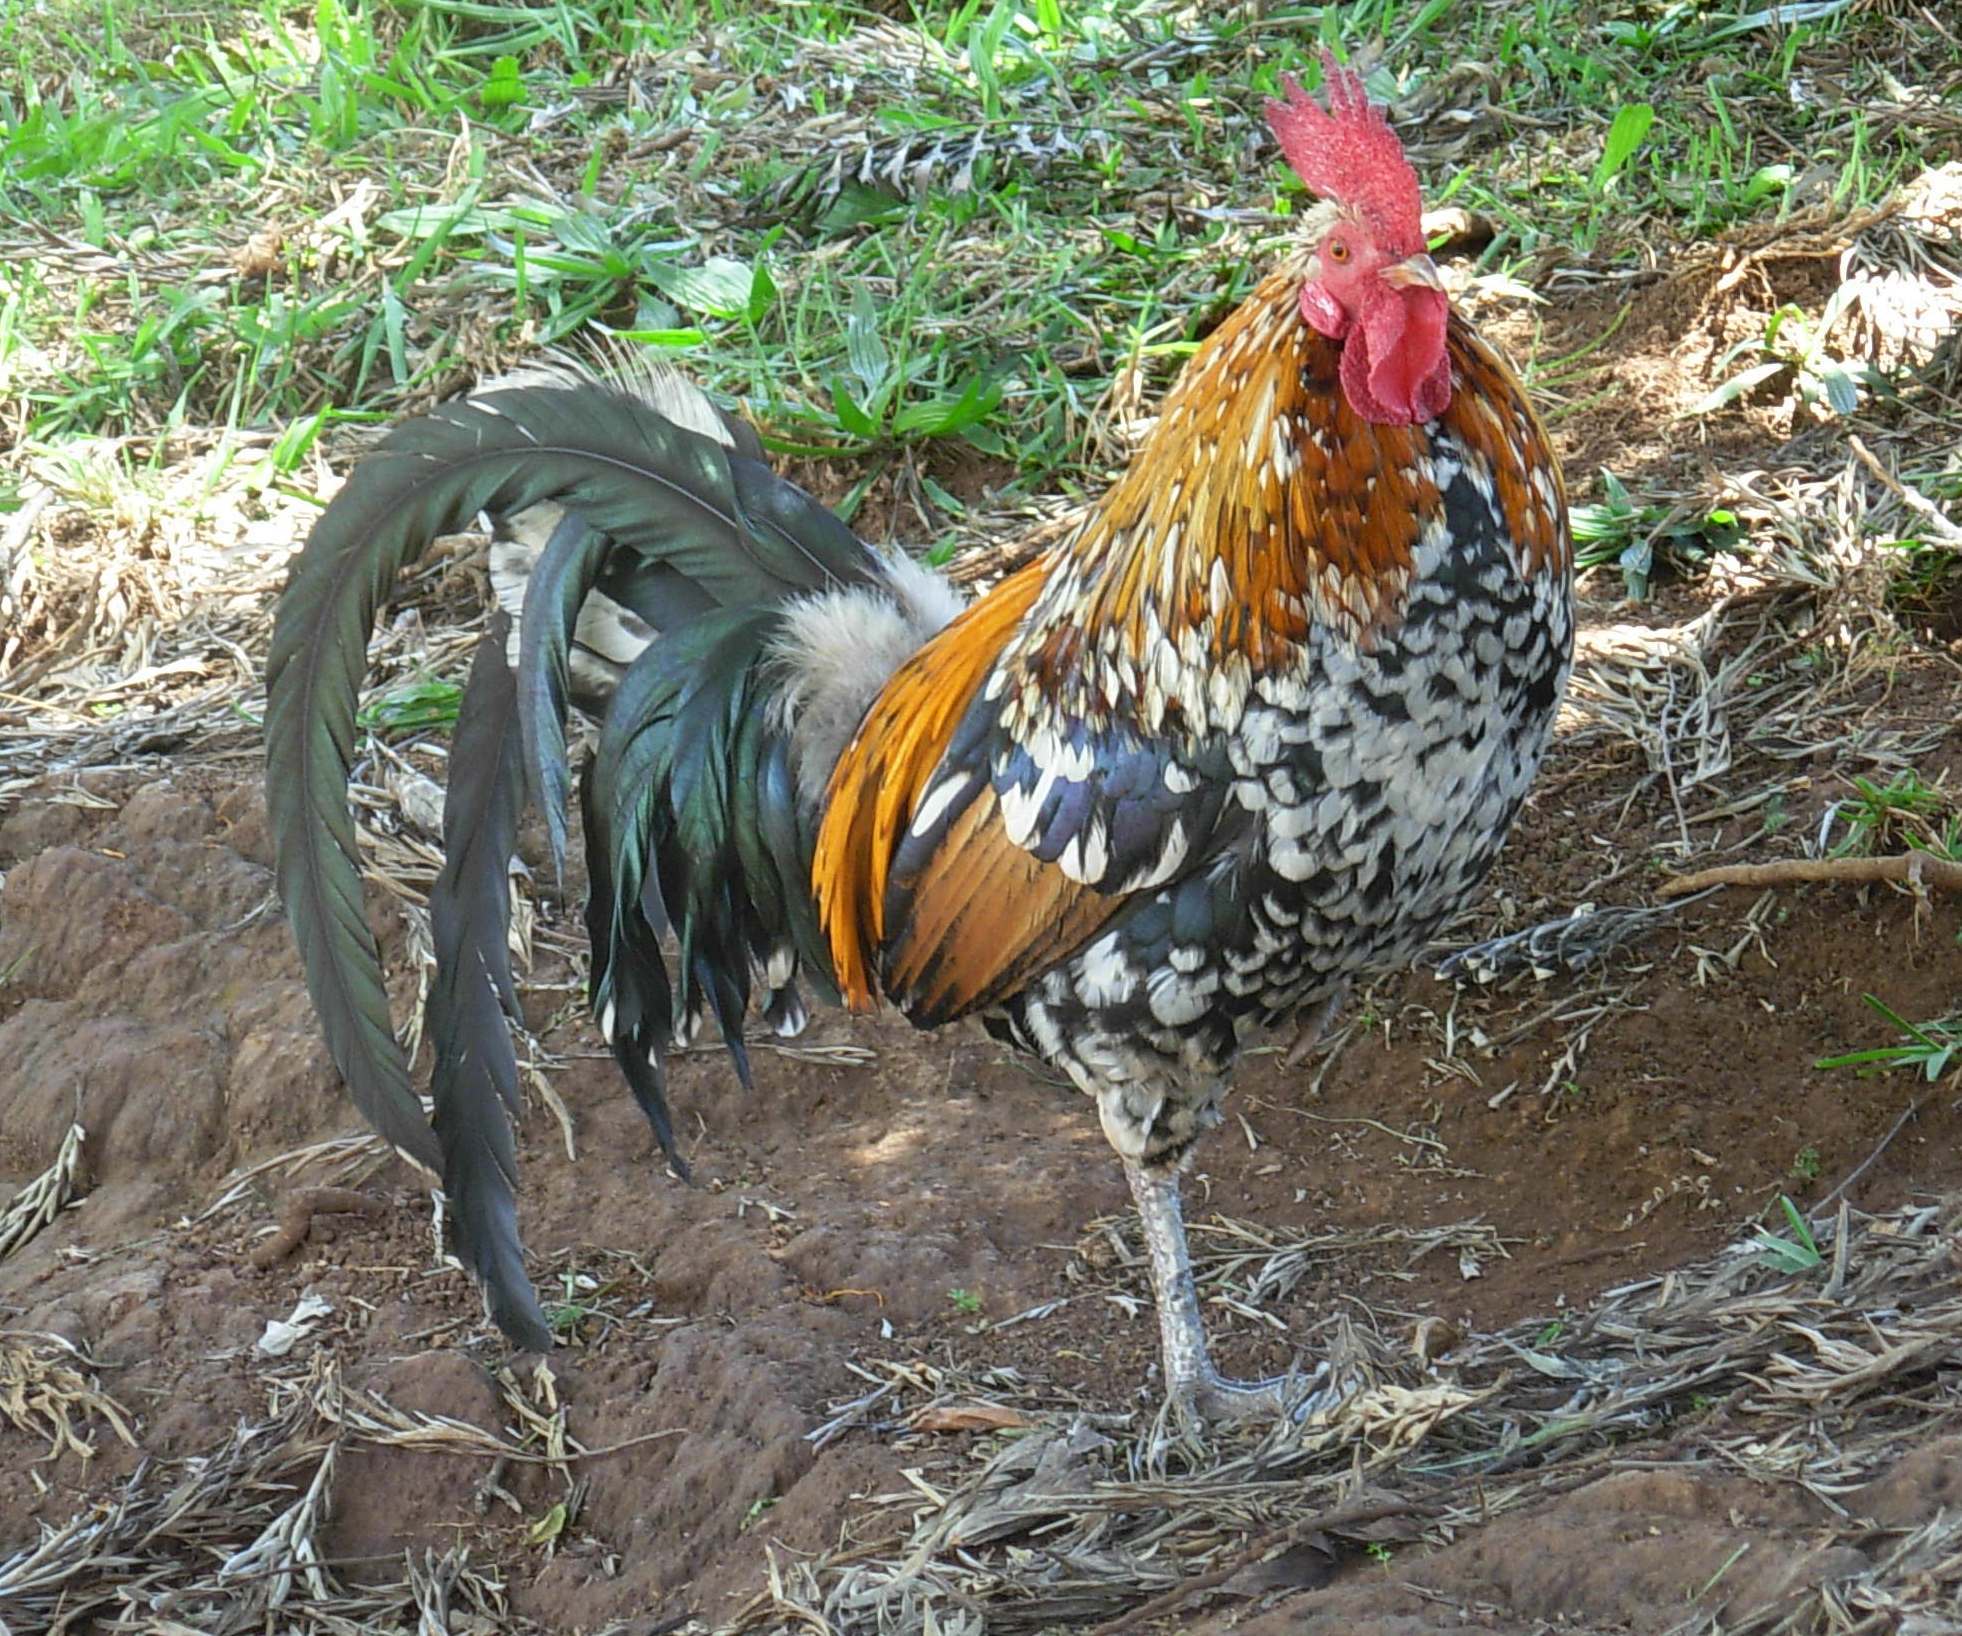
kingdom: Animalia
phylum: Chordata
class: Aves
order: Galliformes
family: Phasianidae
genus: Gallus
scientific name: Gallus gallus
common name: Red junglefowl
